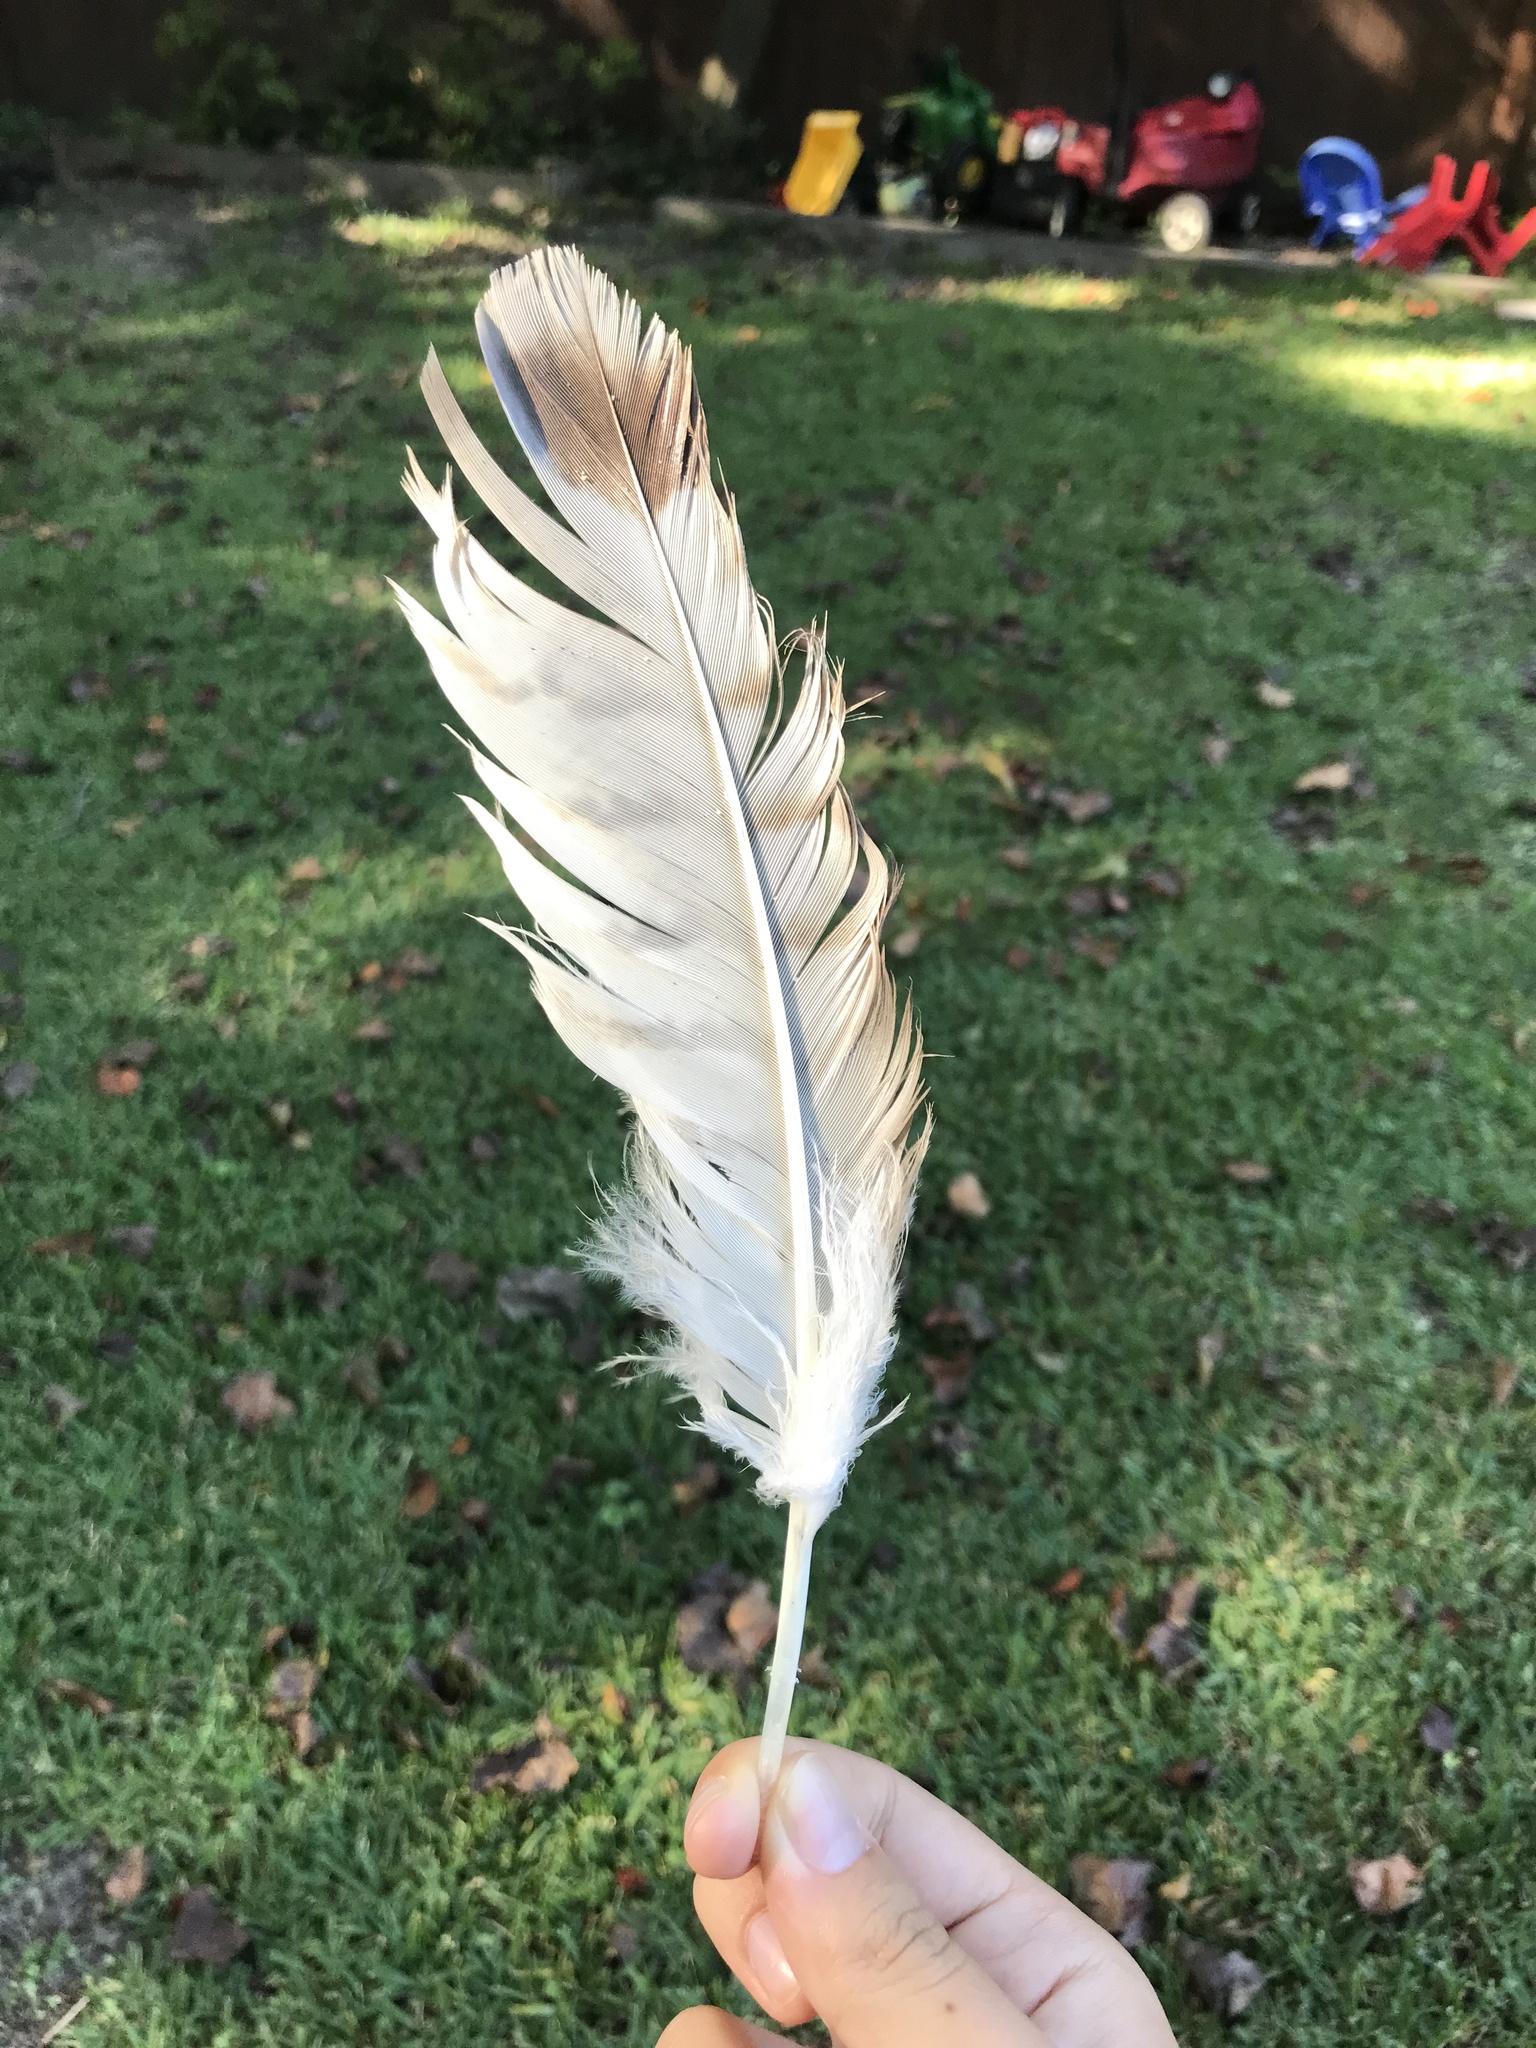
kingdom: Animalia
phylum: Chordata
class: Aves
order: Accipitriformes
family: Accipitridae
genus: Buteo
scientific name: Buteo jamaicensis
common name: Red-tailed hawk
